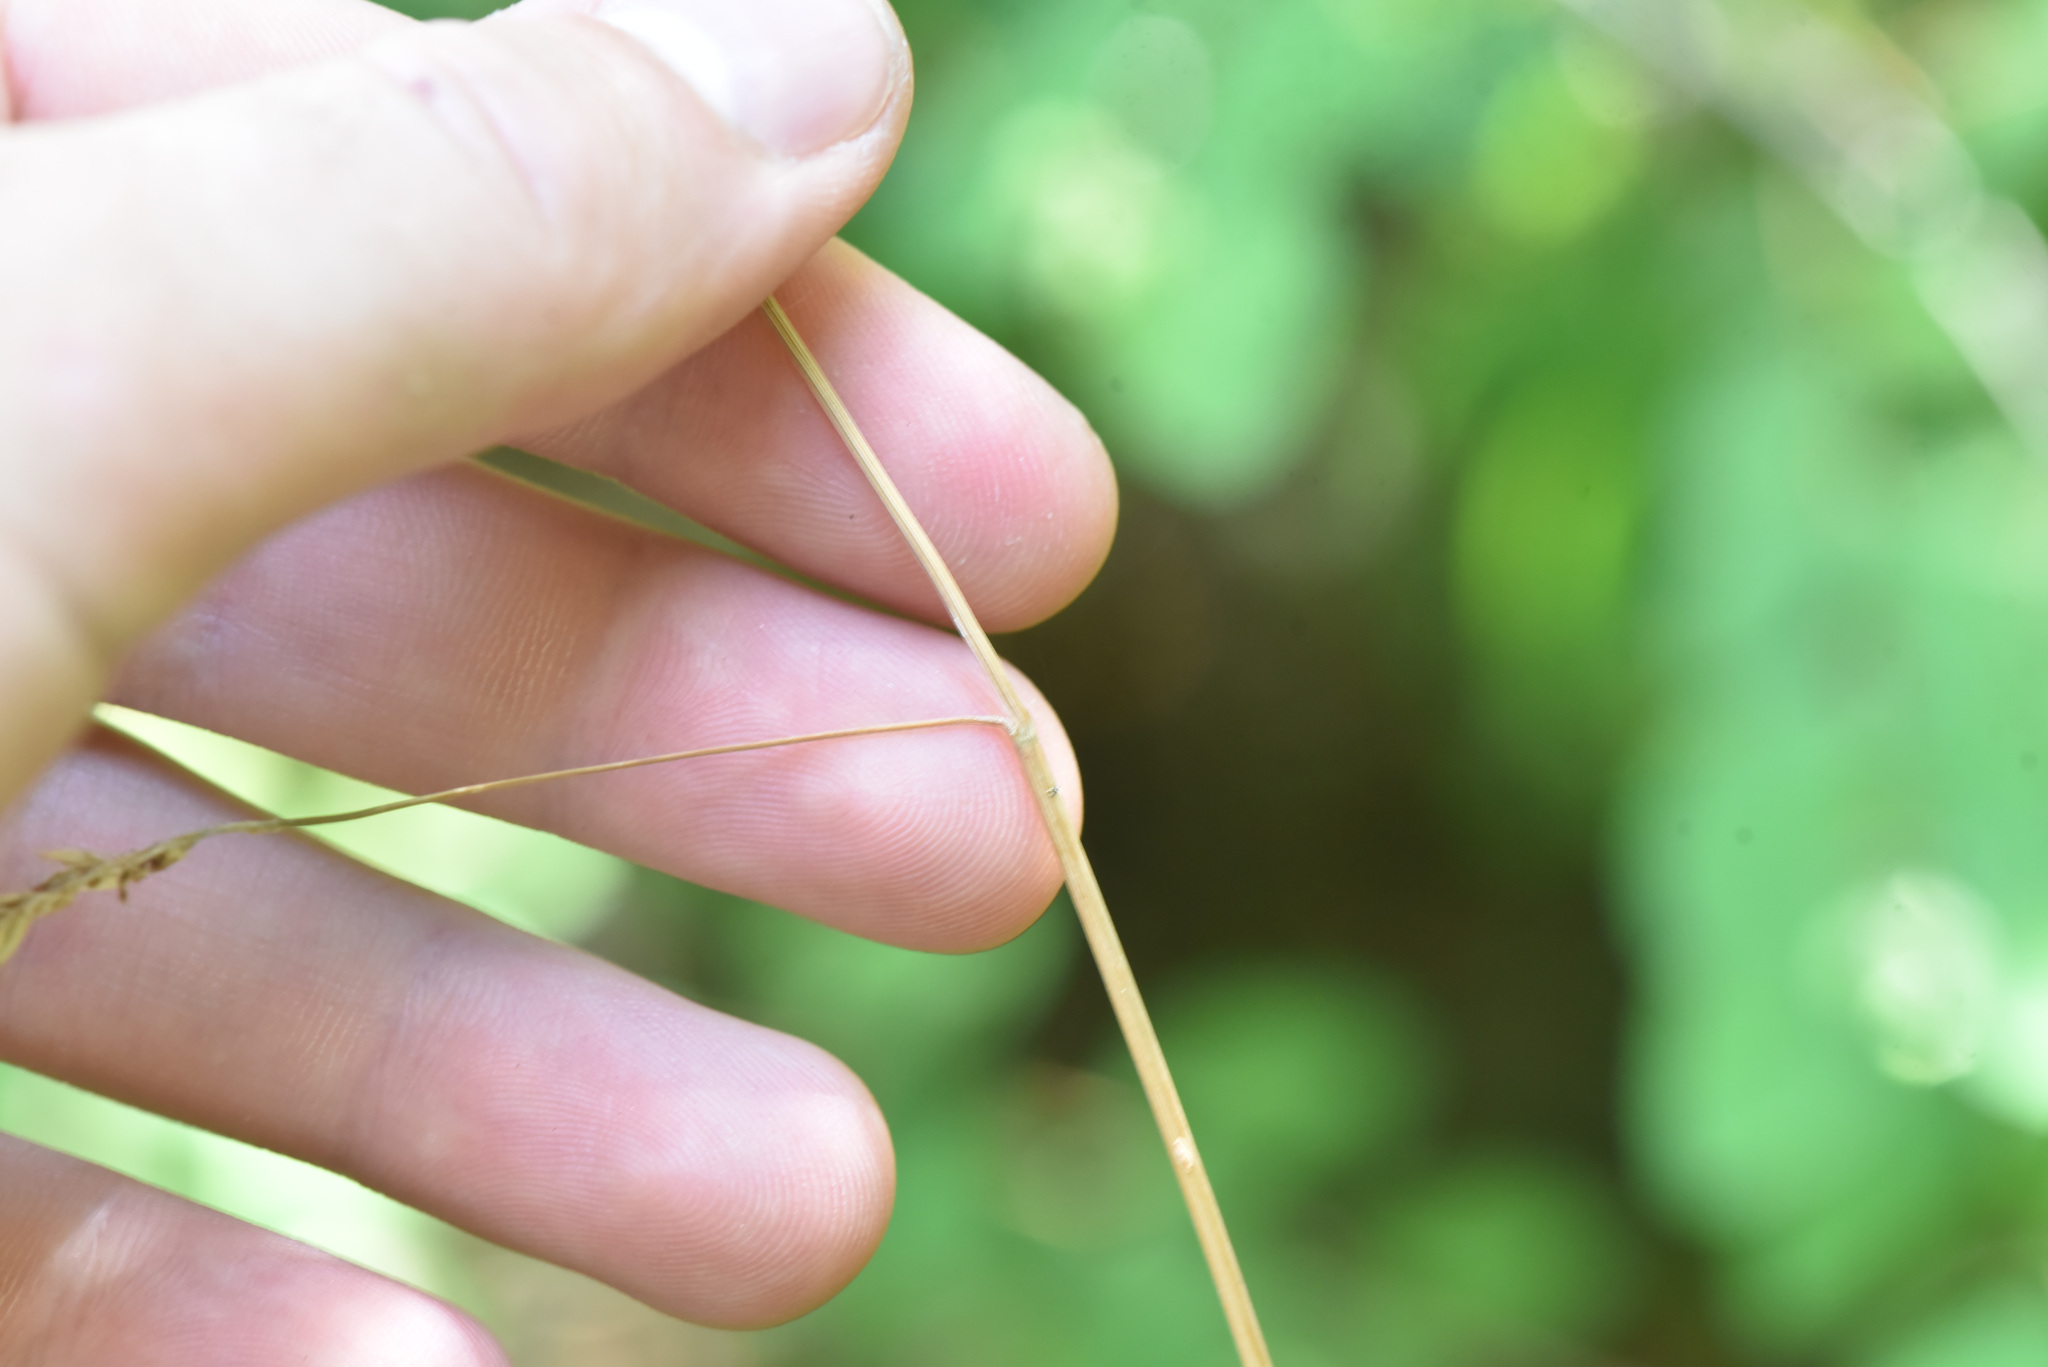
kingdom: Plantae
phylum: Tracheophyta
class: Liliopsida
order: Poales
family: Poaceae
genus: Dactylis
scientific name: Dactylis glomerata
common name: Orchardgrass
